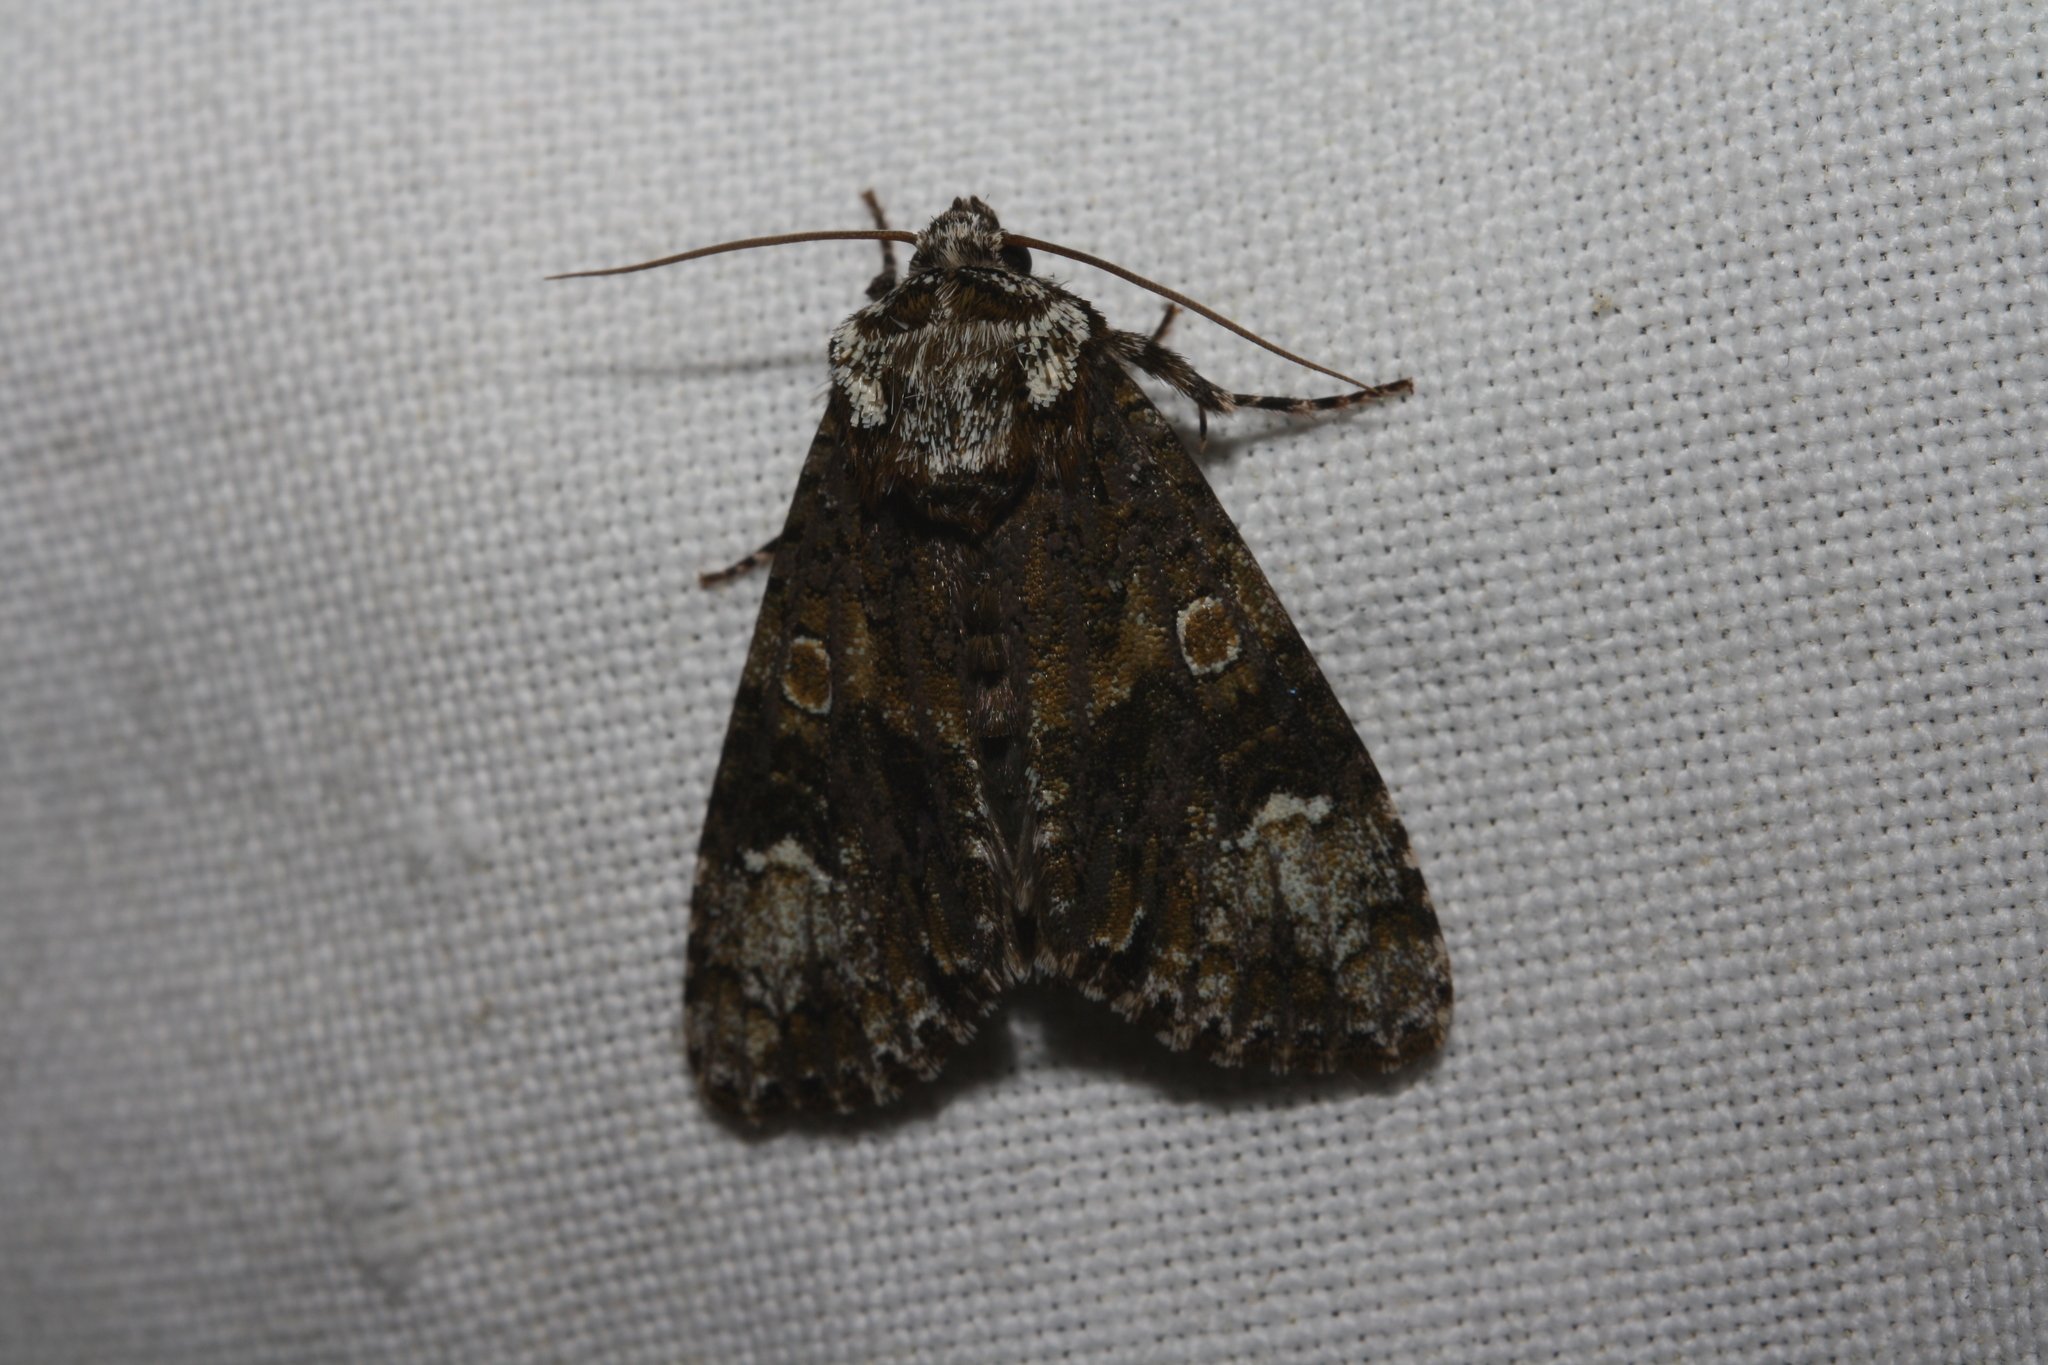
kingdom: Animalia
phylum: Arthropoda
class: Insecta
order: Lepidoptera
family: Noctuidae
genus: Craniophora
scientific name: Craniophora ligustri
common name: Coronet
